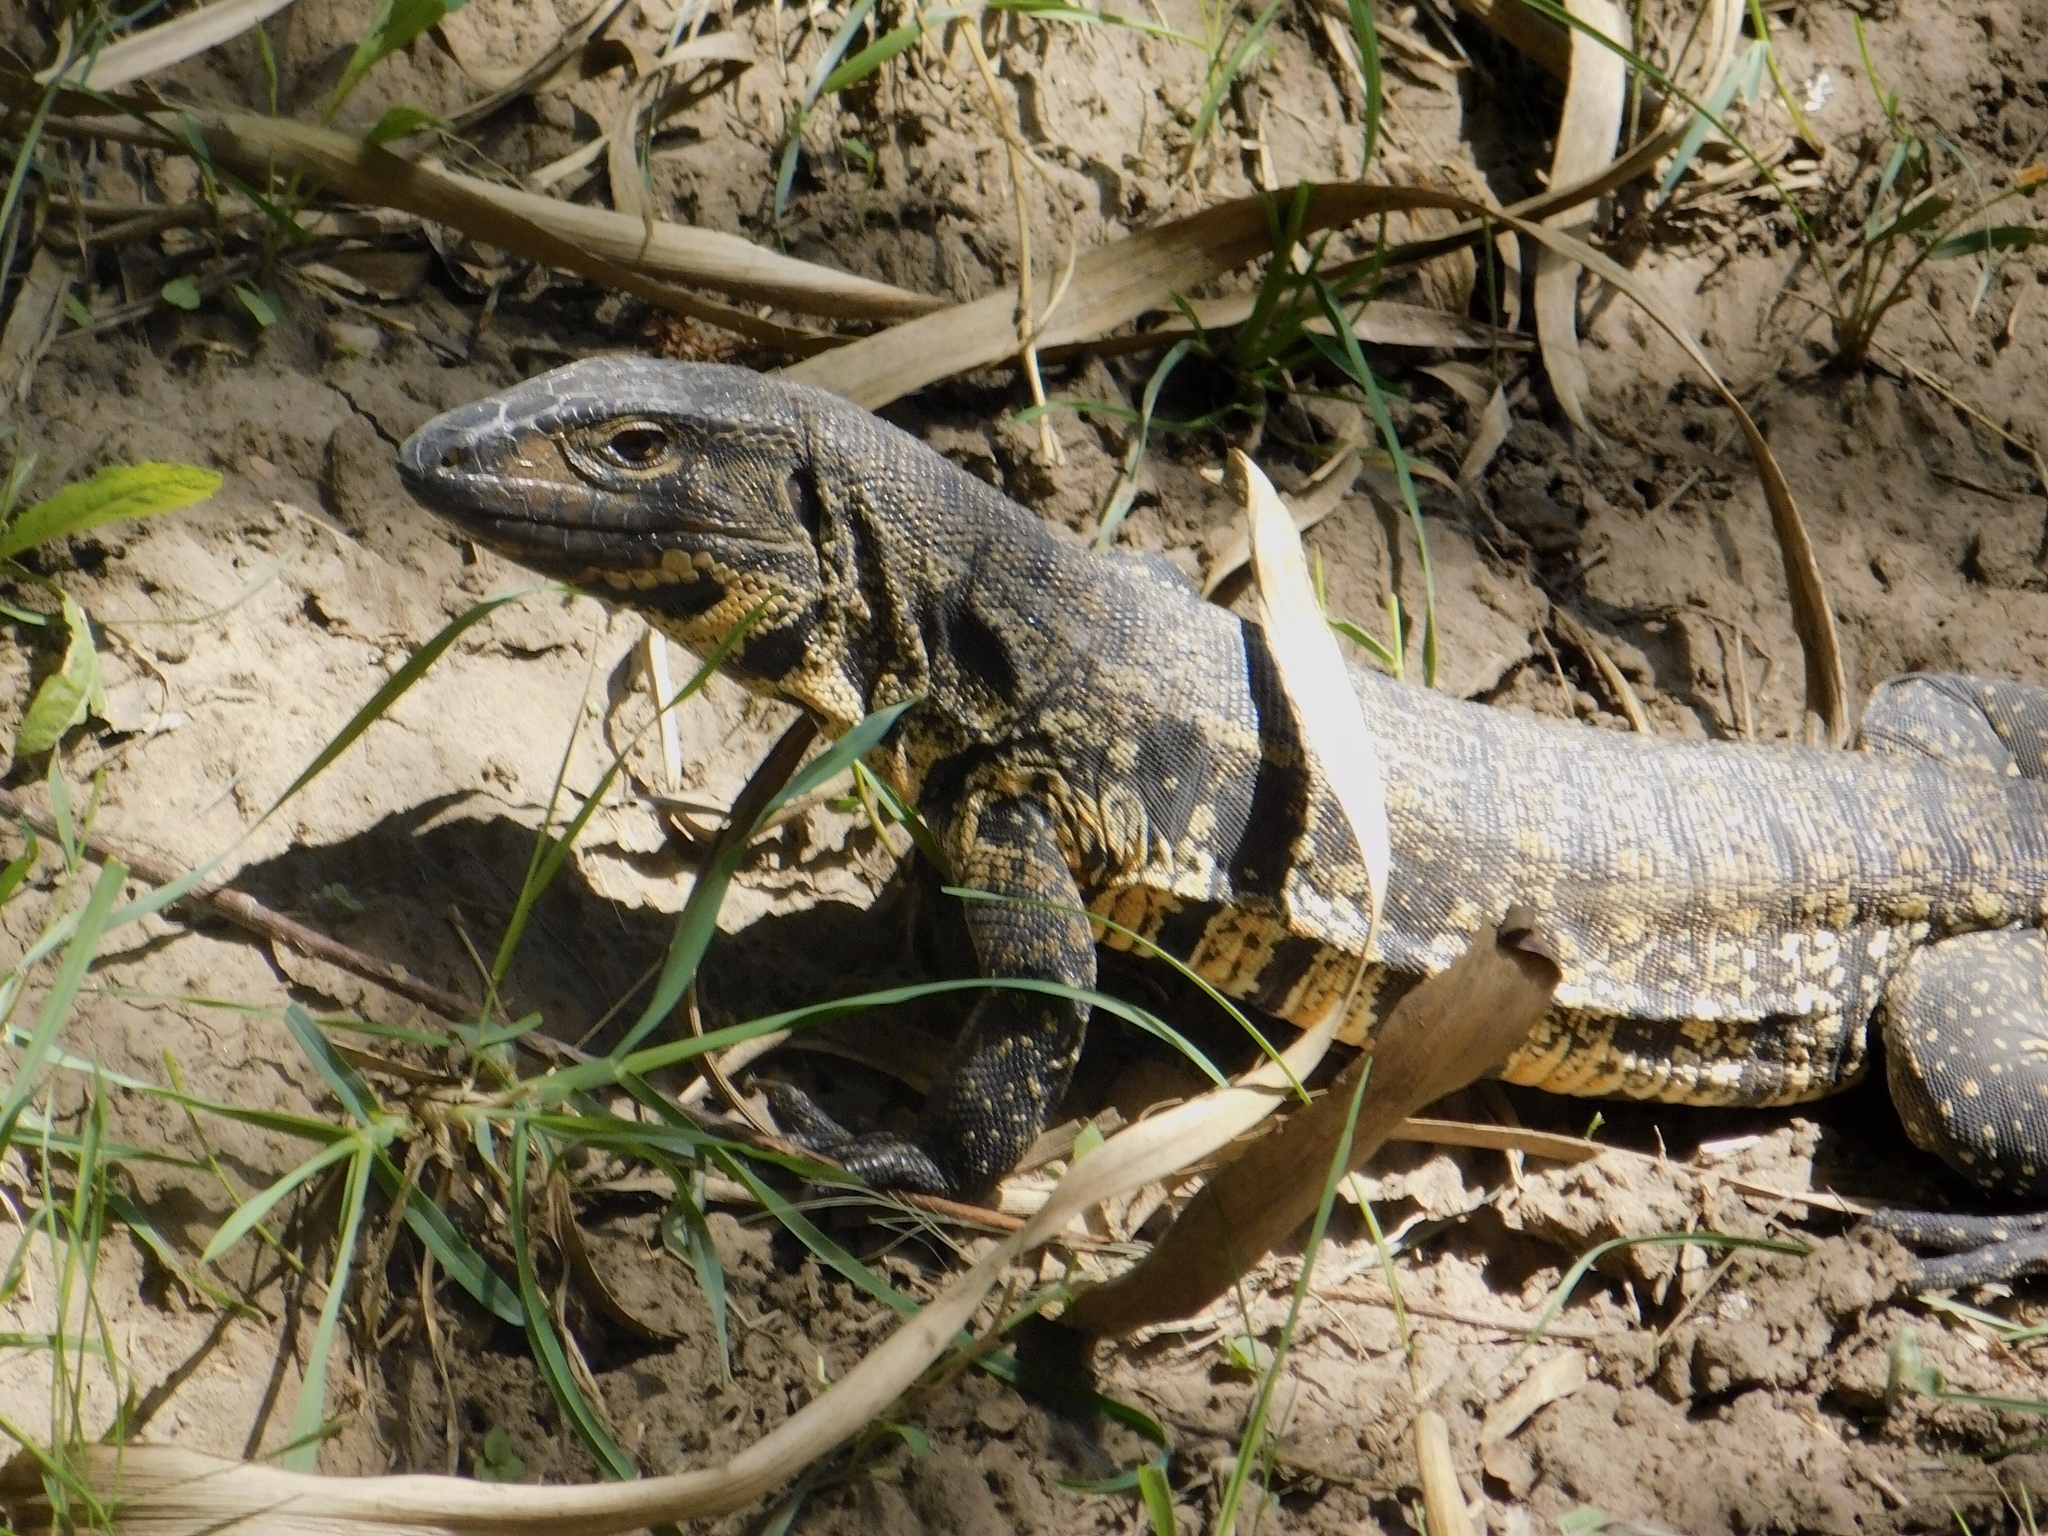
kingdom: Animalia
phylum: Chordata
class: Squamata
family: Teiidae
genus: Salvator
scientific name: Salvator merianae
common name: Argentine black and white tegu
